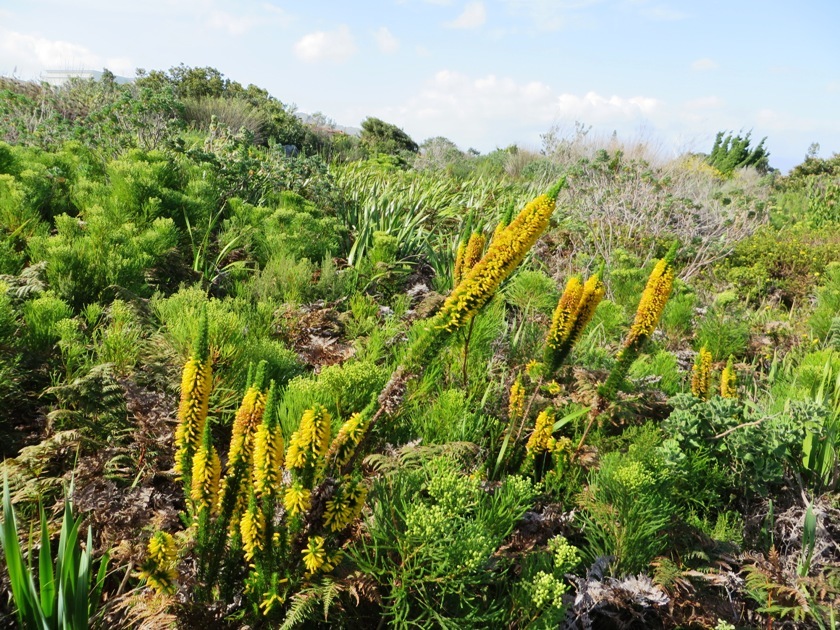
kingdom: Plantae
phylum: Tracheophyta
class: Magnoliopsida
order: Ericales
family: Ericaceae
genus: Erica
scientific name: Erica patersonia
